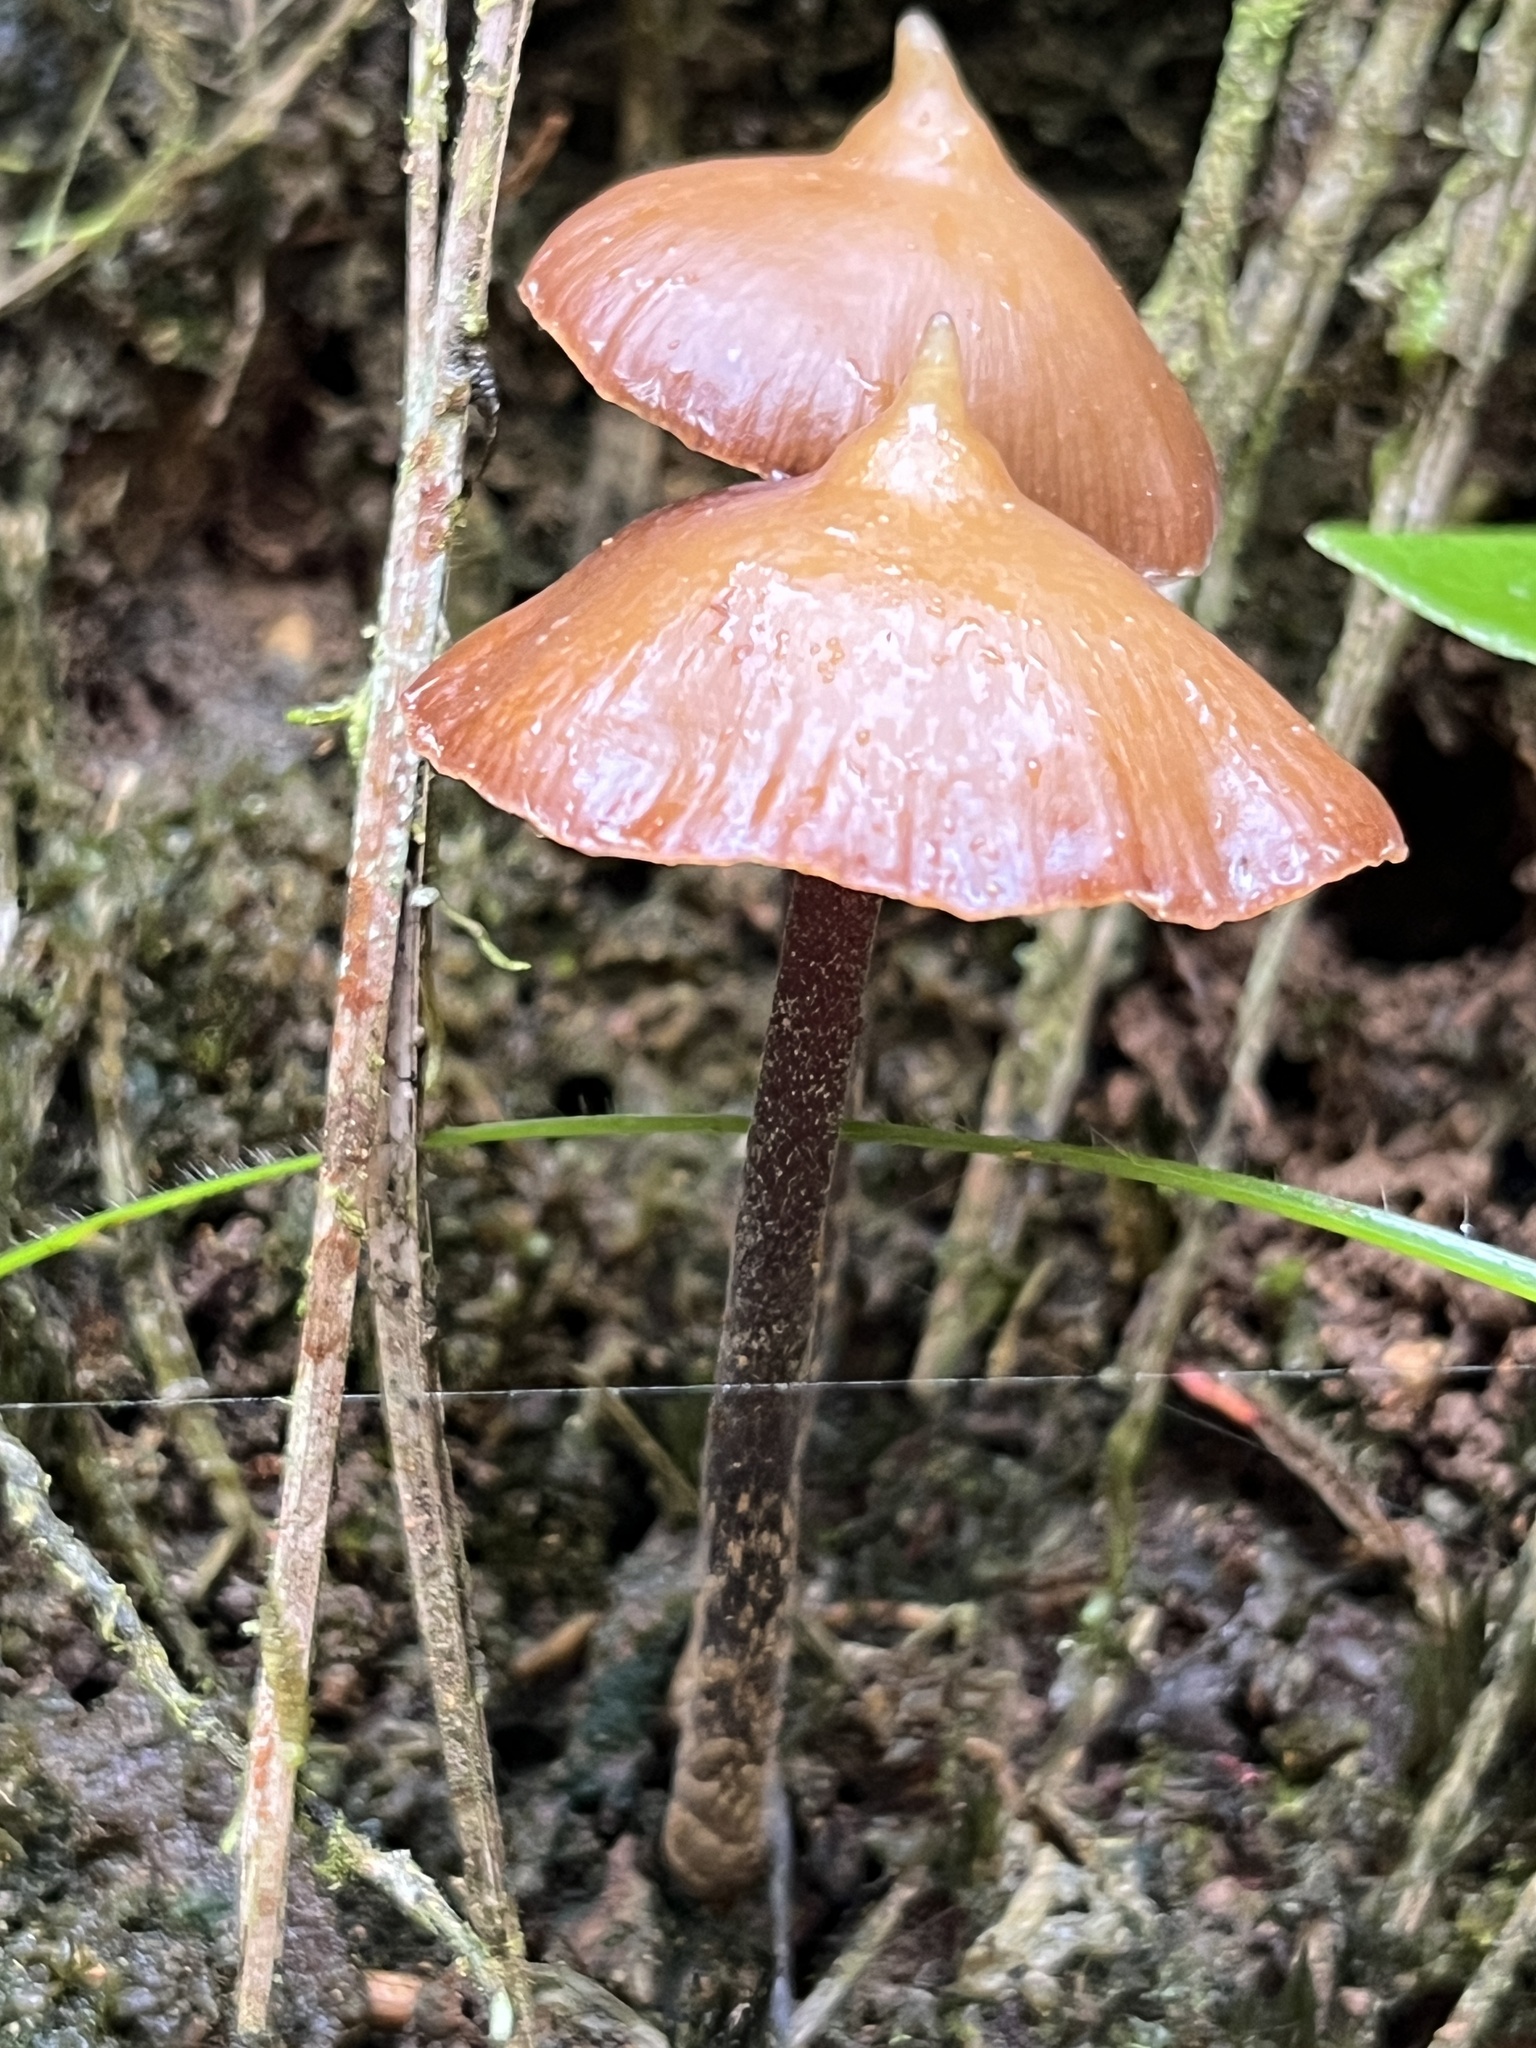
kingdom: Fungi
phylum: Basidiomycota
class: Agaricomycetes
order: Agaricales
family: Hymenogastraceae
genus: Psilocybe
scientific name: Psilocybe hoogshagenii
